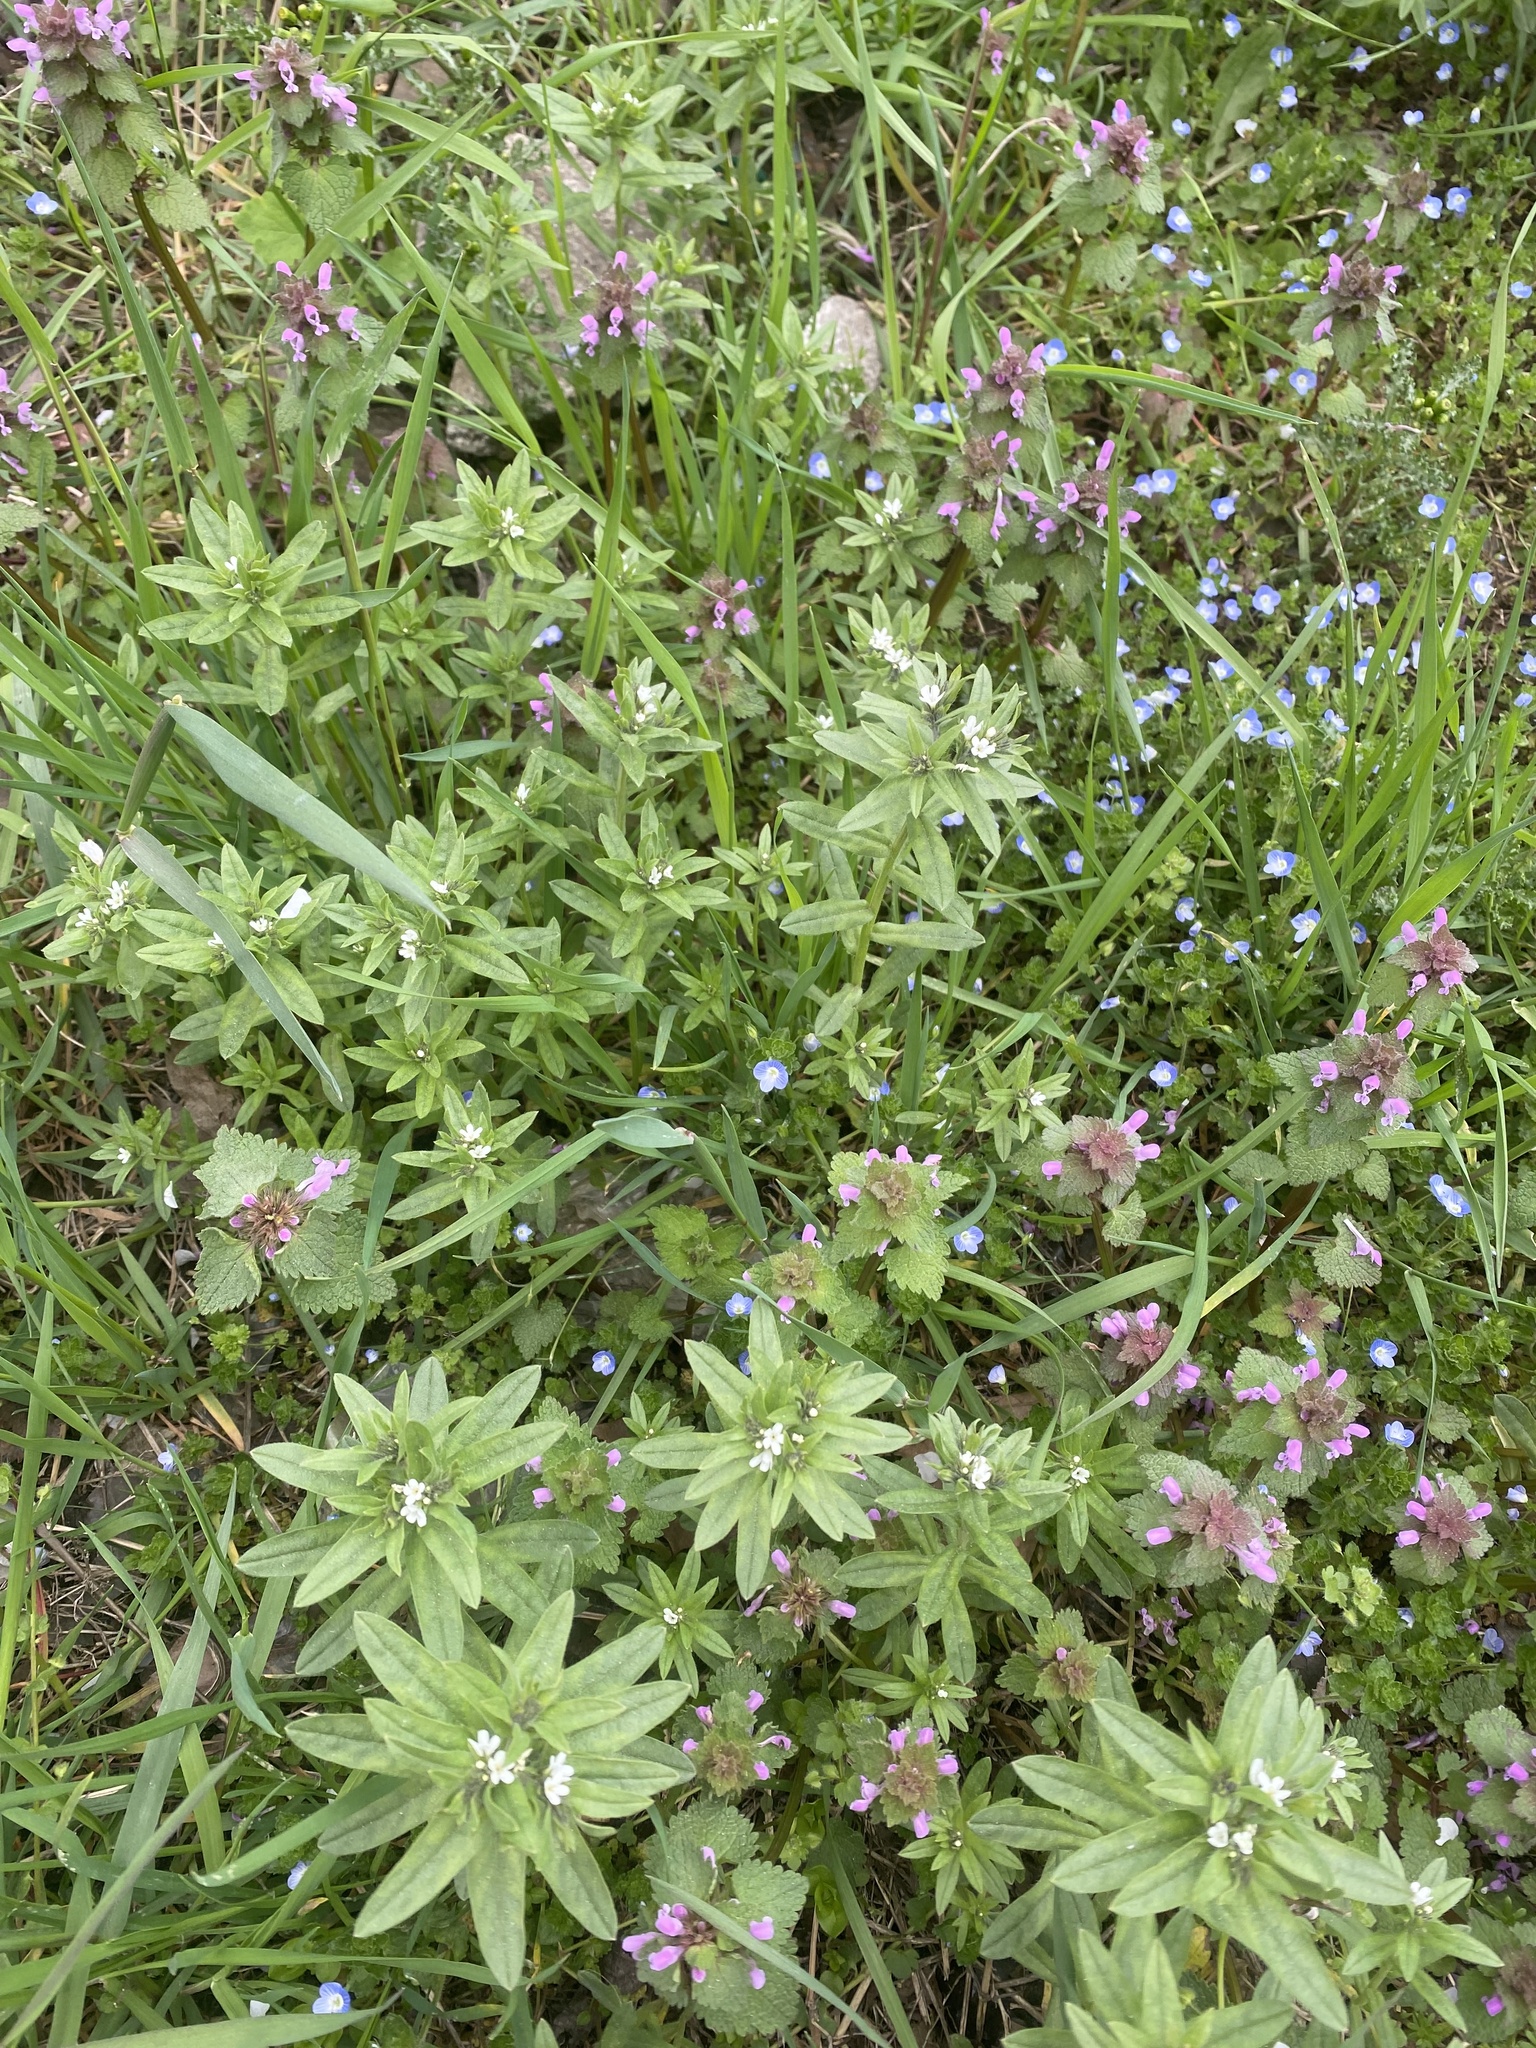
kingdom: Plantae
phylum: Tracheophyta
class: Magnoliopsida
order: Boraginales
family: Boraginaceae
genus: Buglossoides
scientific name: Buglossoides arvensis
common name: Corn gromwell
